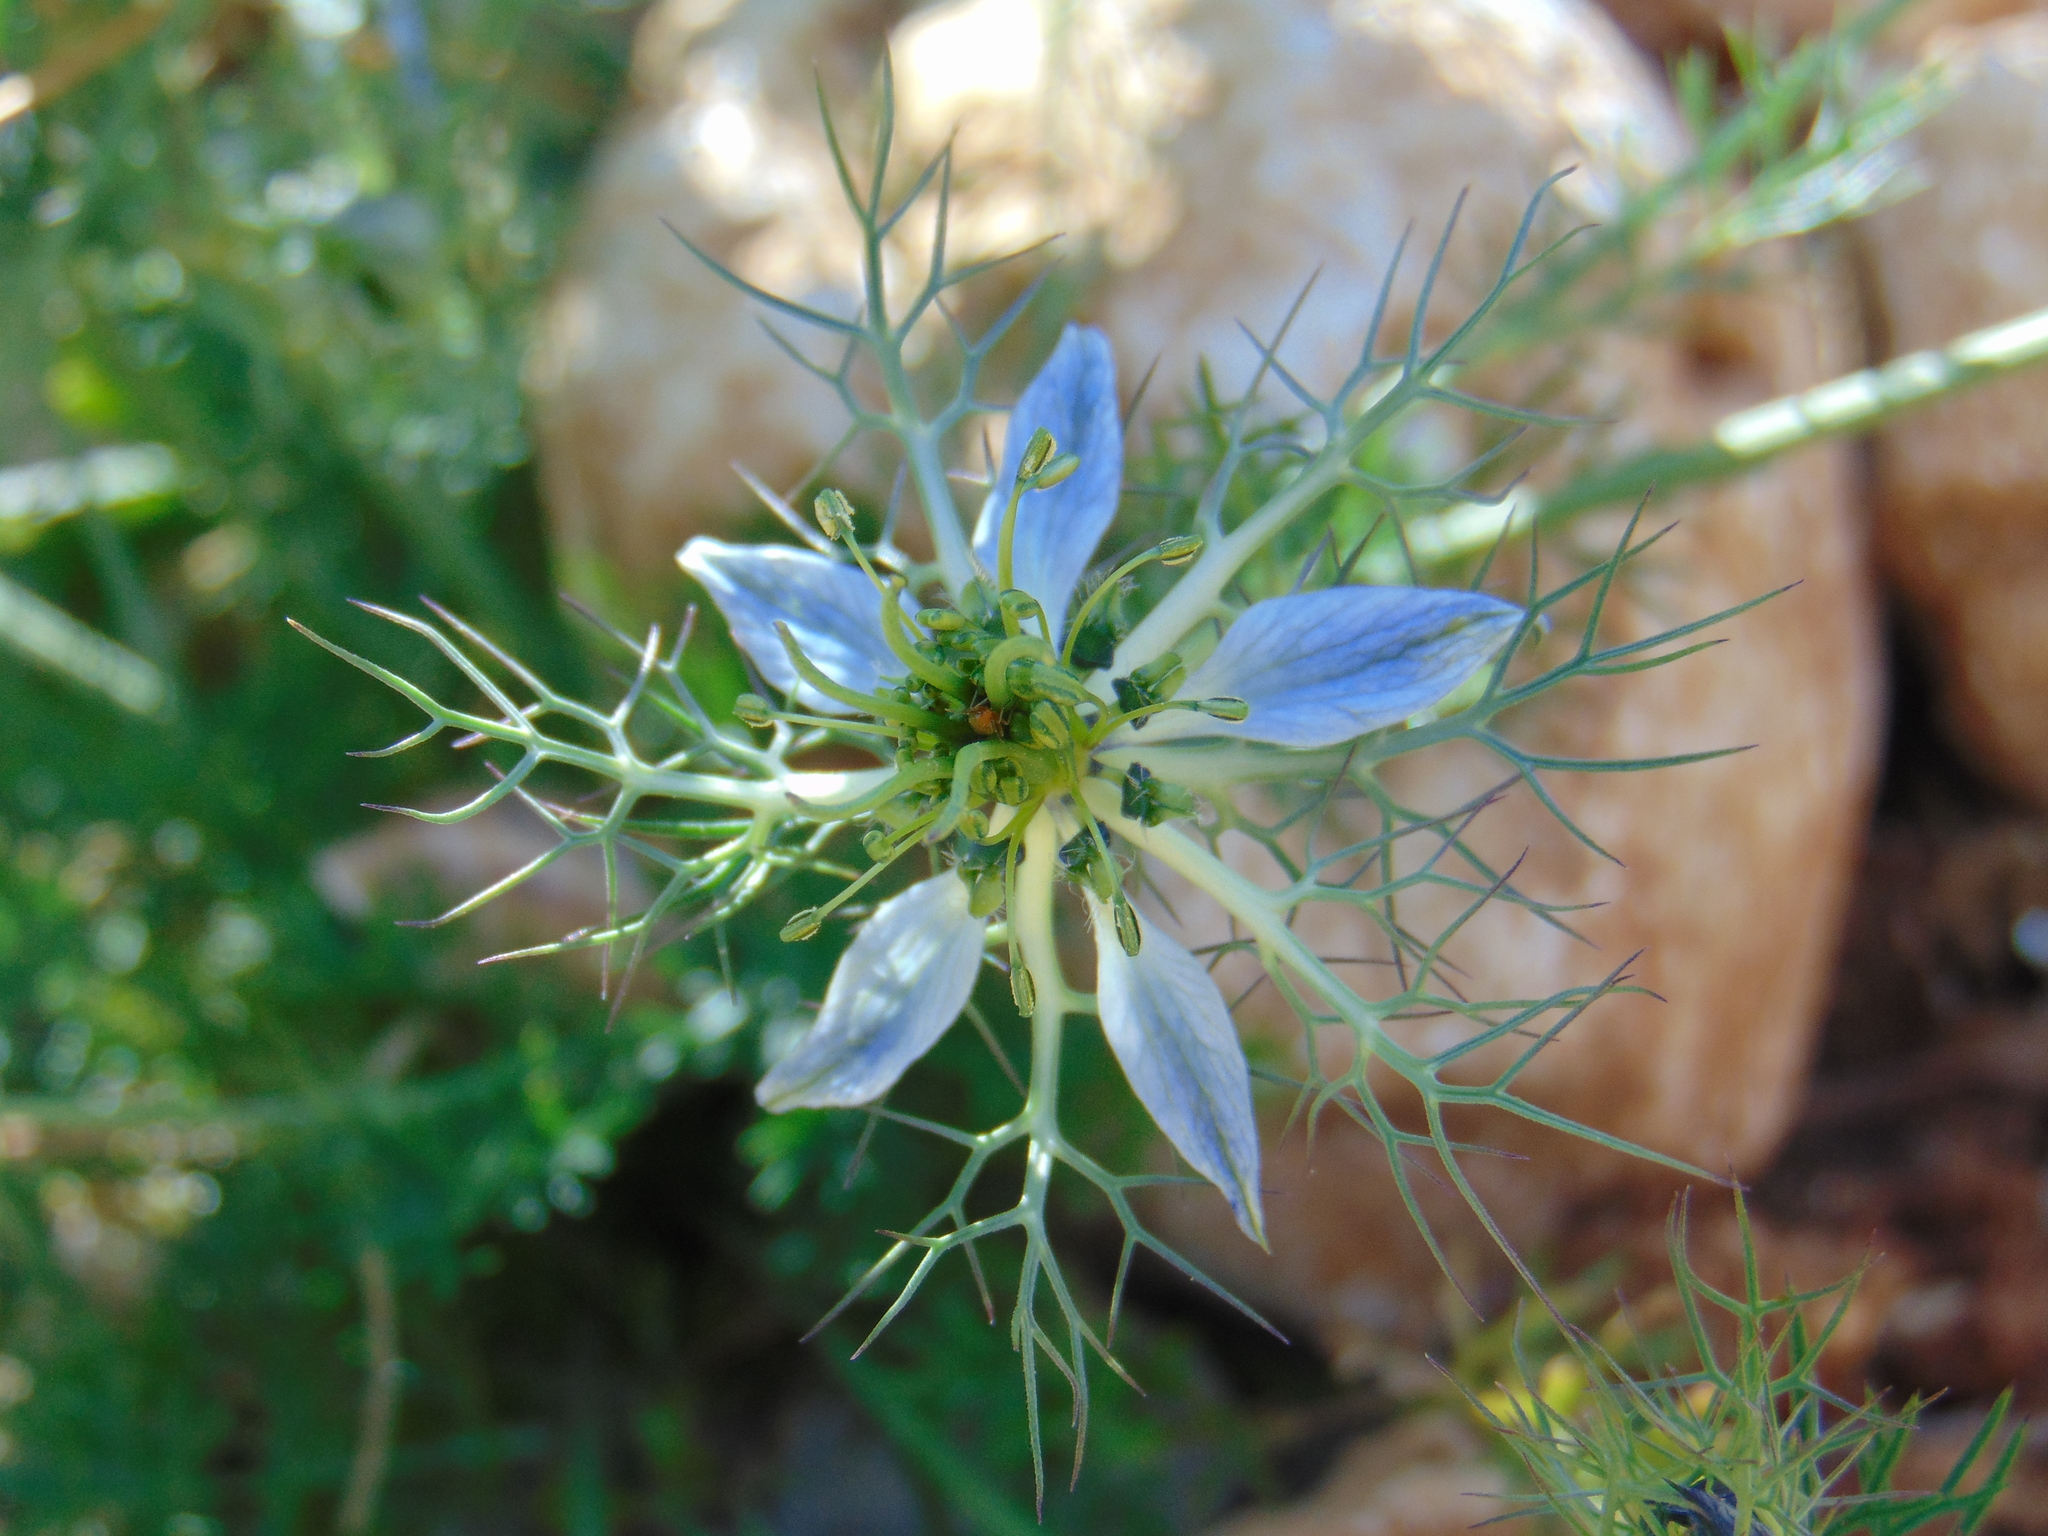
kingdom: Plantae
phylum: Tracheophyta
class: Magnoliopsida
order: Ranunculales
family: Ranunculaceae
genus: Nigella
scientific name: Nigella damascena
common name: Love-in-a-mist
